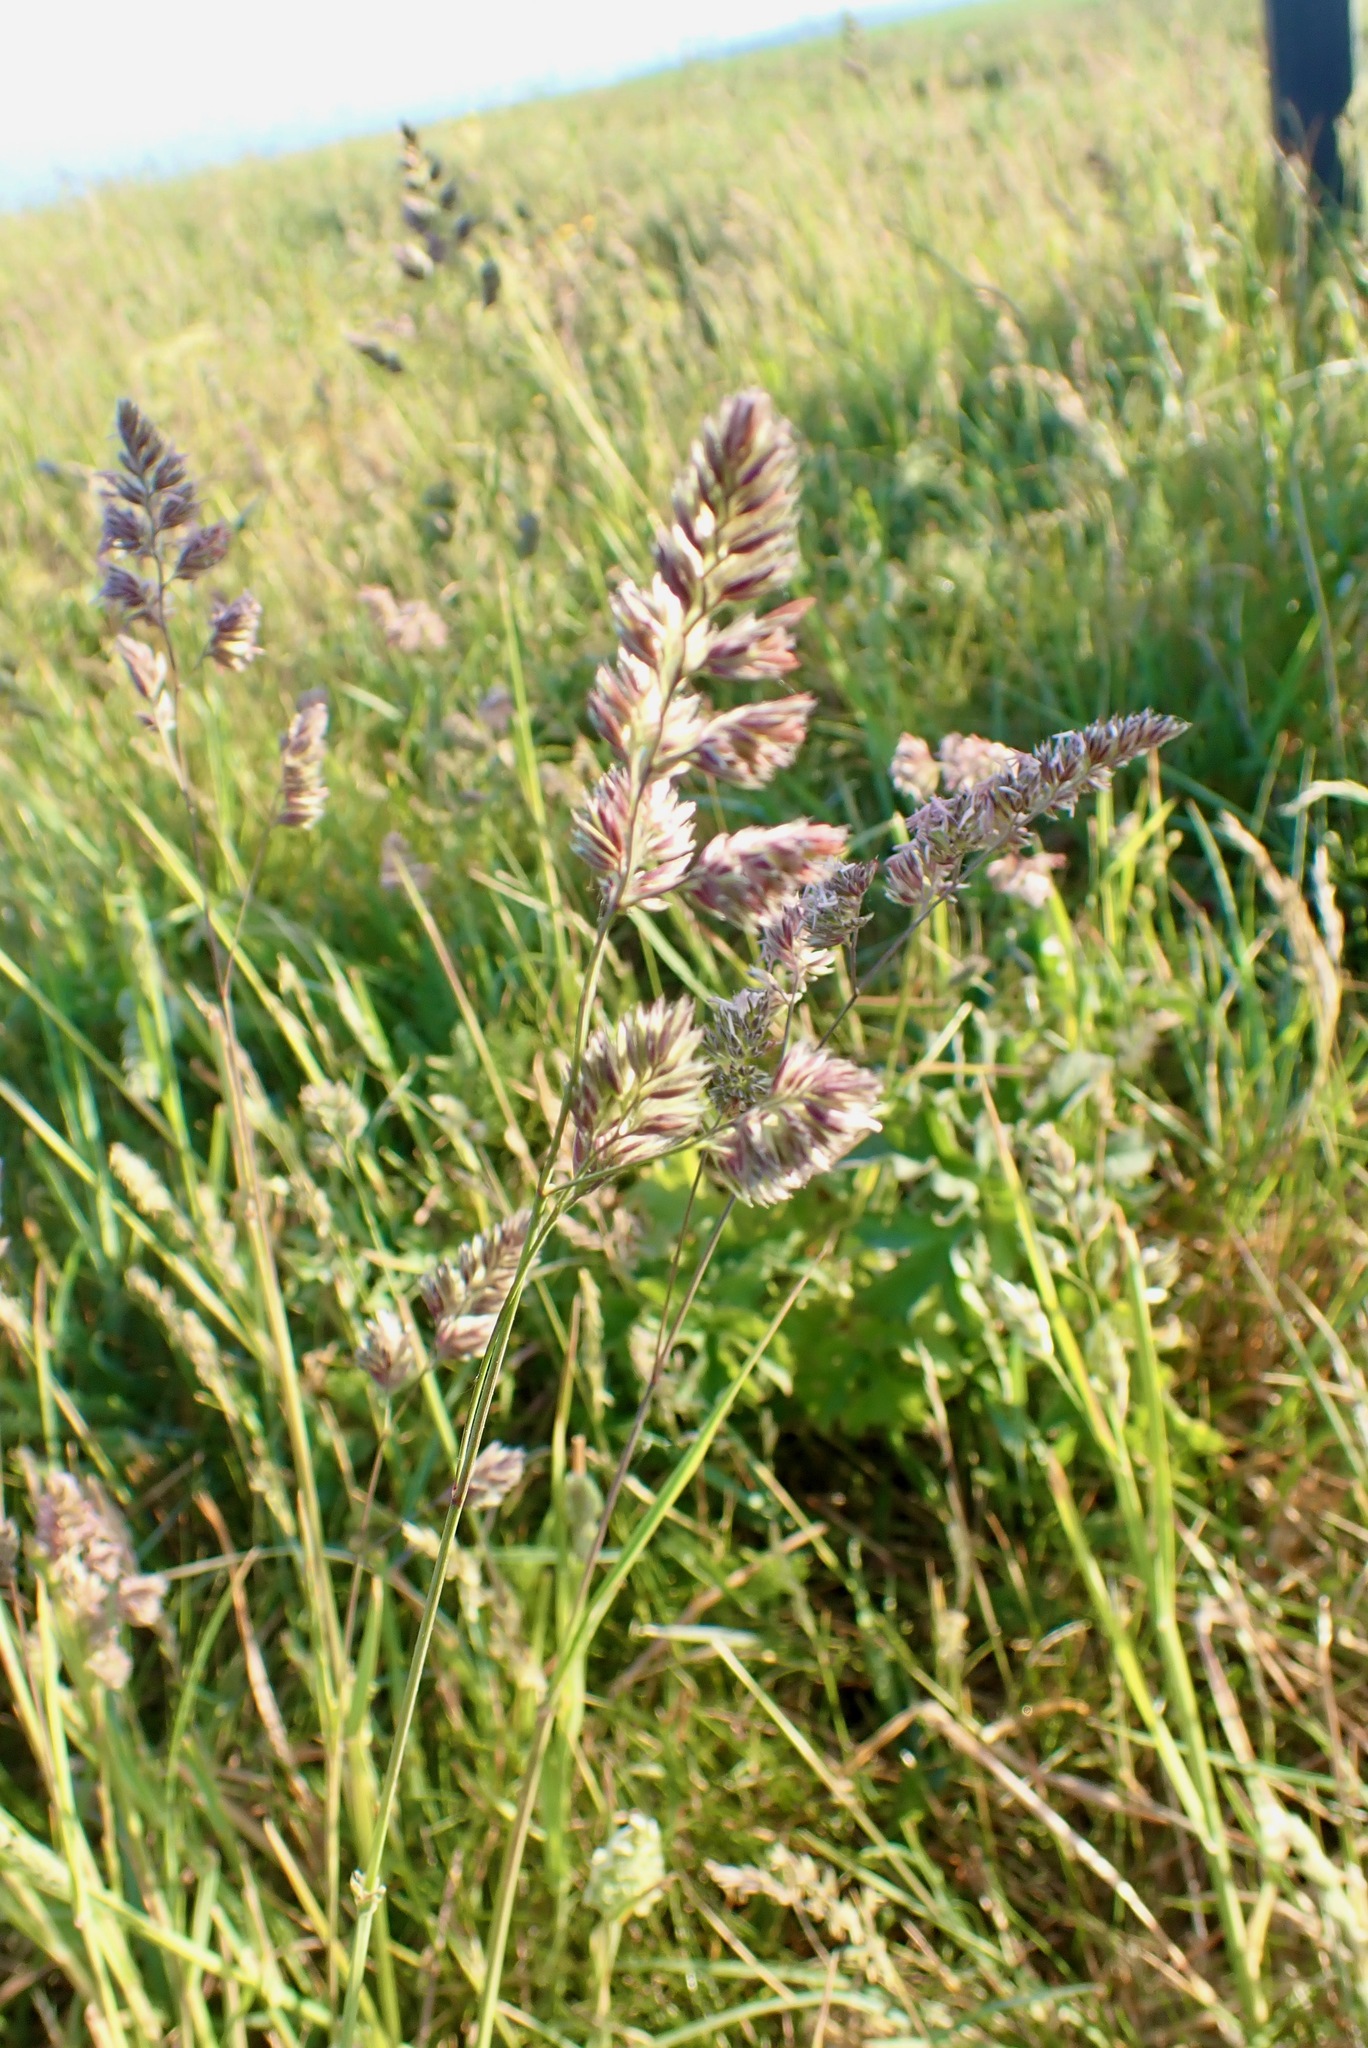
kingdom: Plantae
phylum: Tracheophyta
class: Liliopsida
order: Poales
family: Poaceae
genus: Dactylis
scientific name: Dactylis glomerata
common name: Orchardgrass
